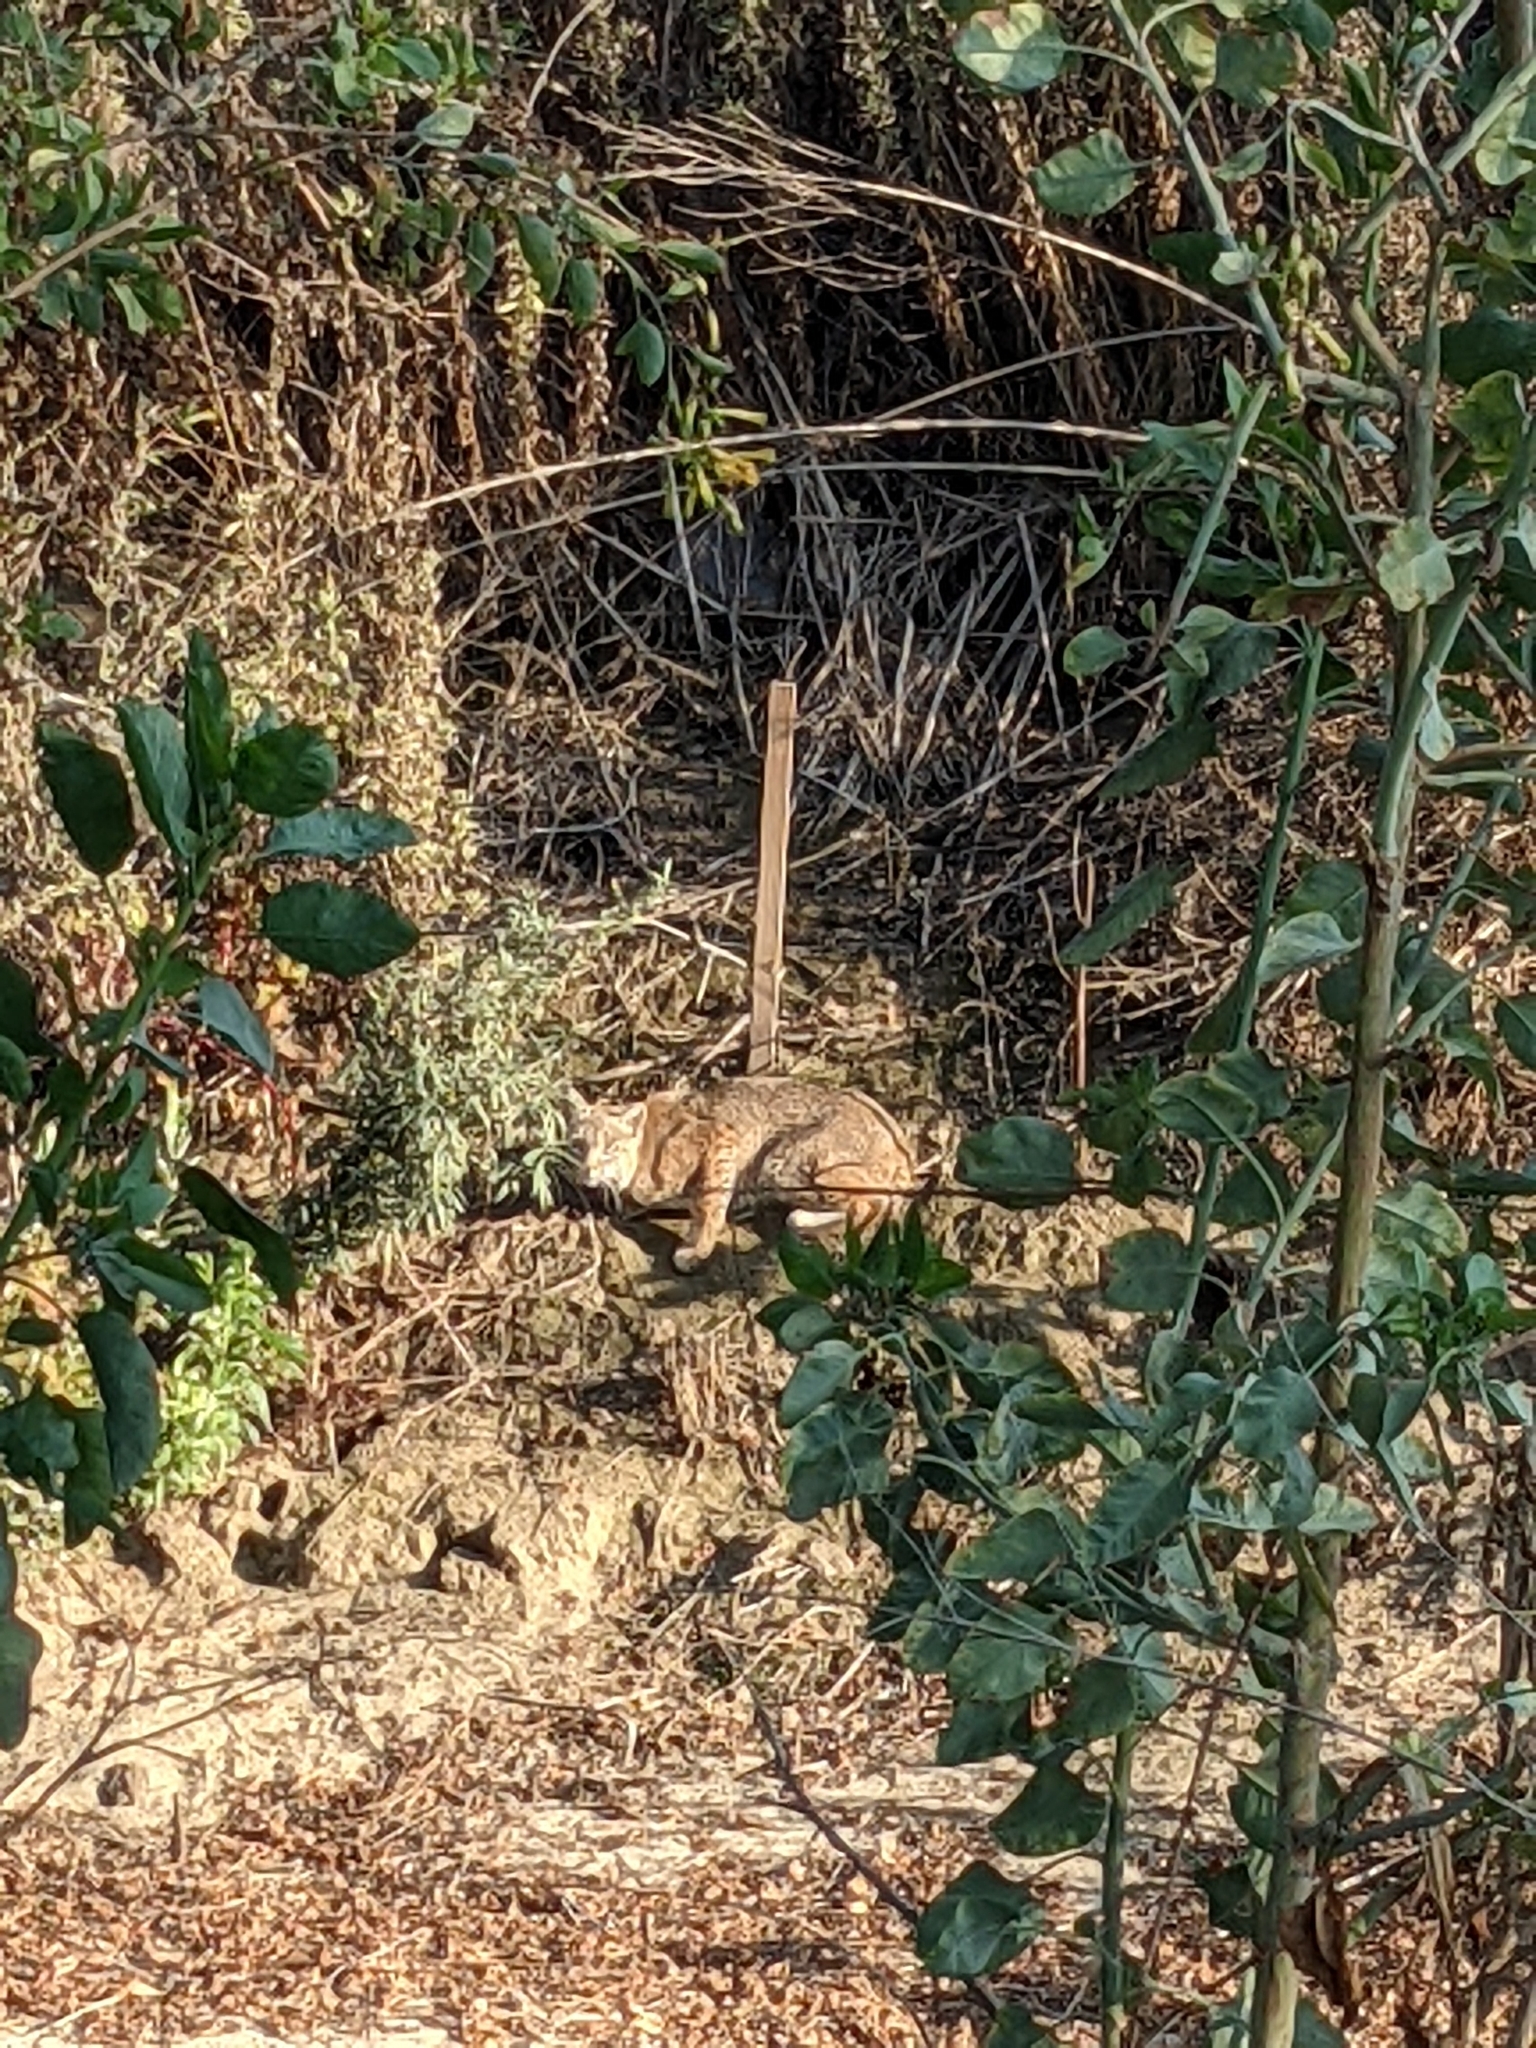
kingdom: Animalia
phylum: Chordata
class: Mammalia
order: Carnivora
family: Felidae
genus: Lynx
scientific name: Lynx rufus
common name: Bobcat
